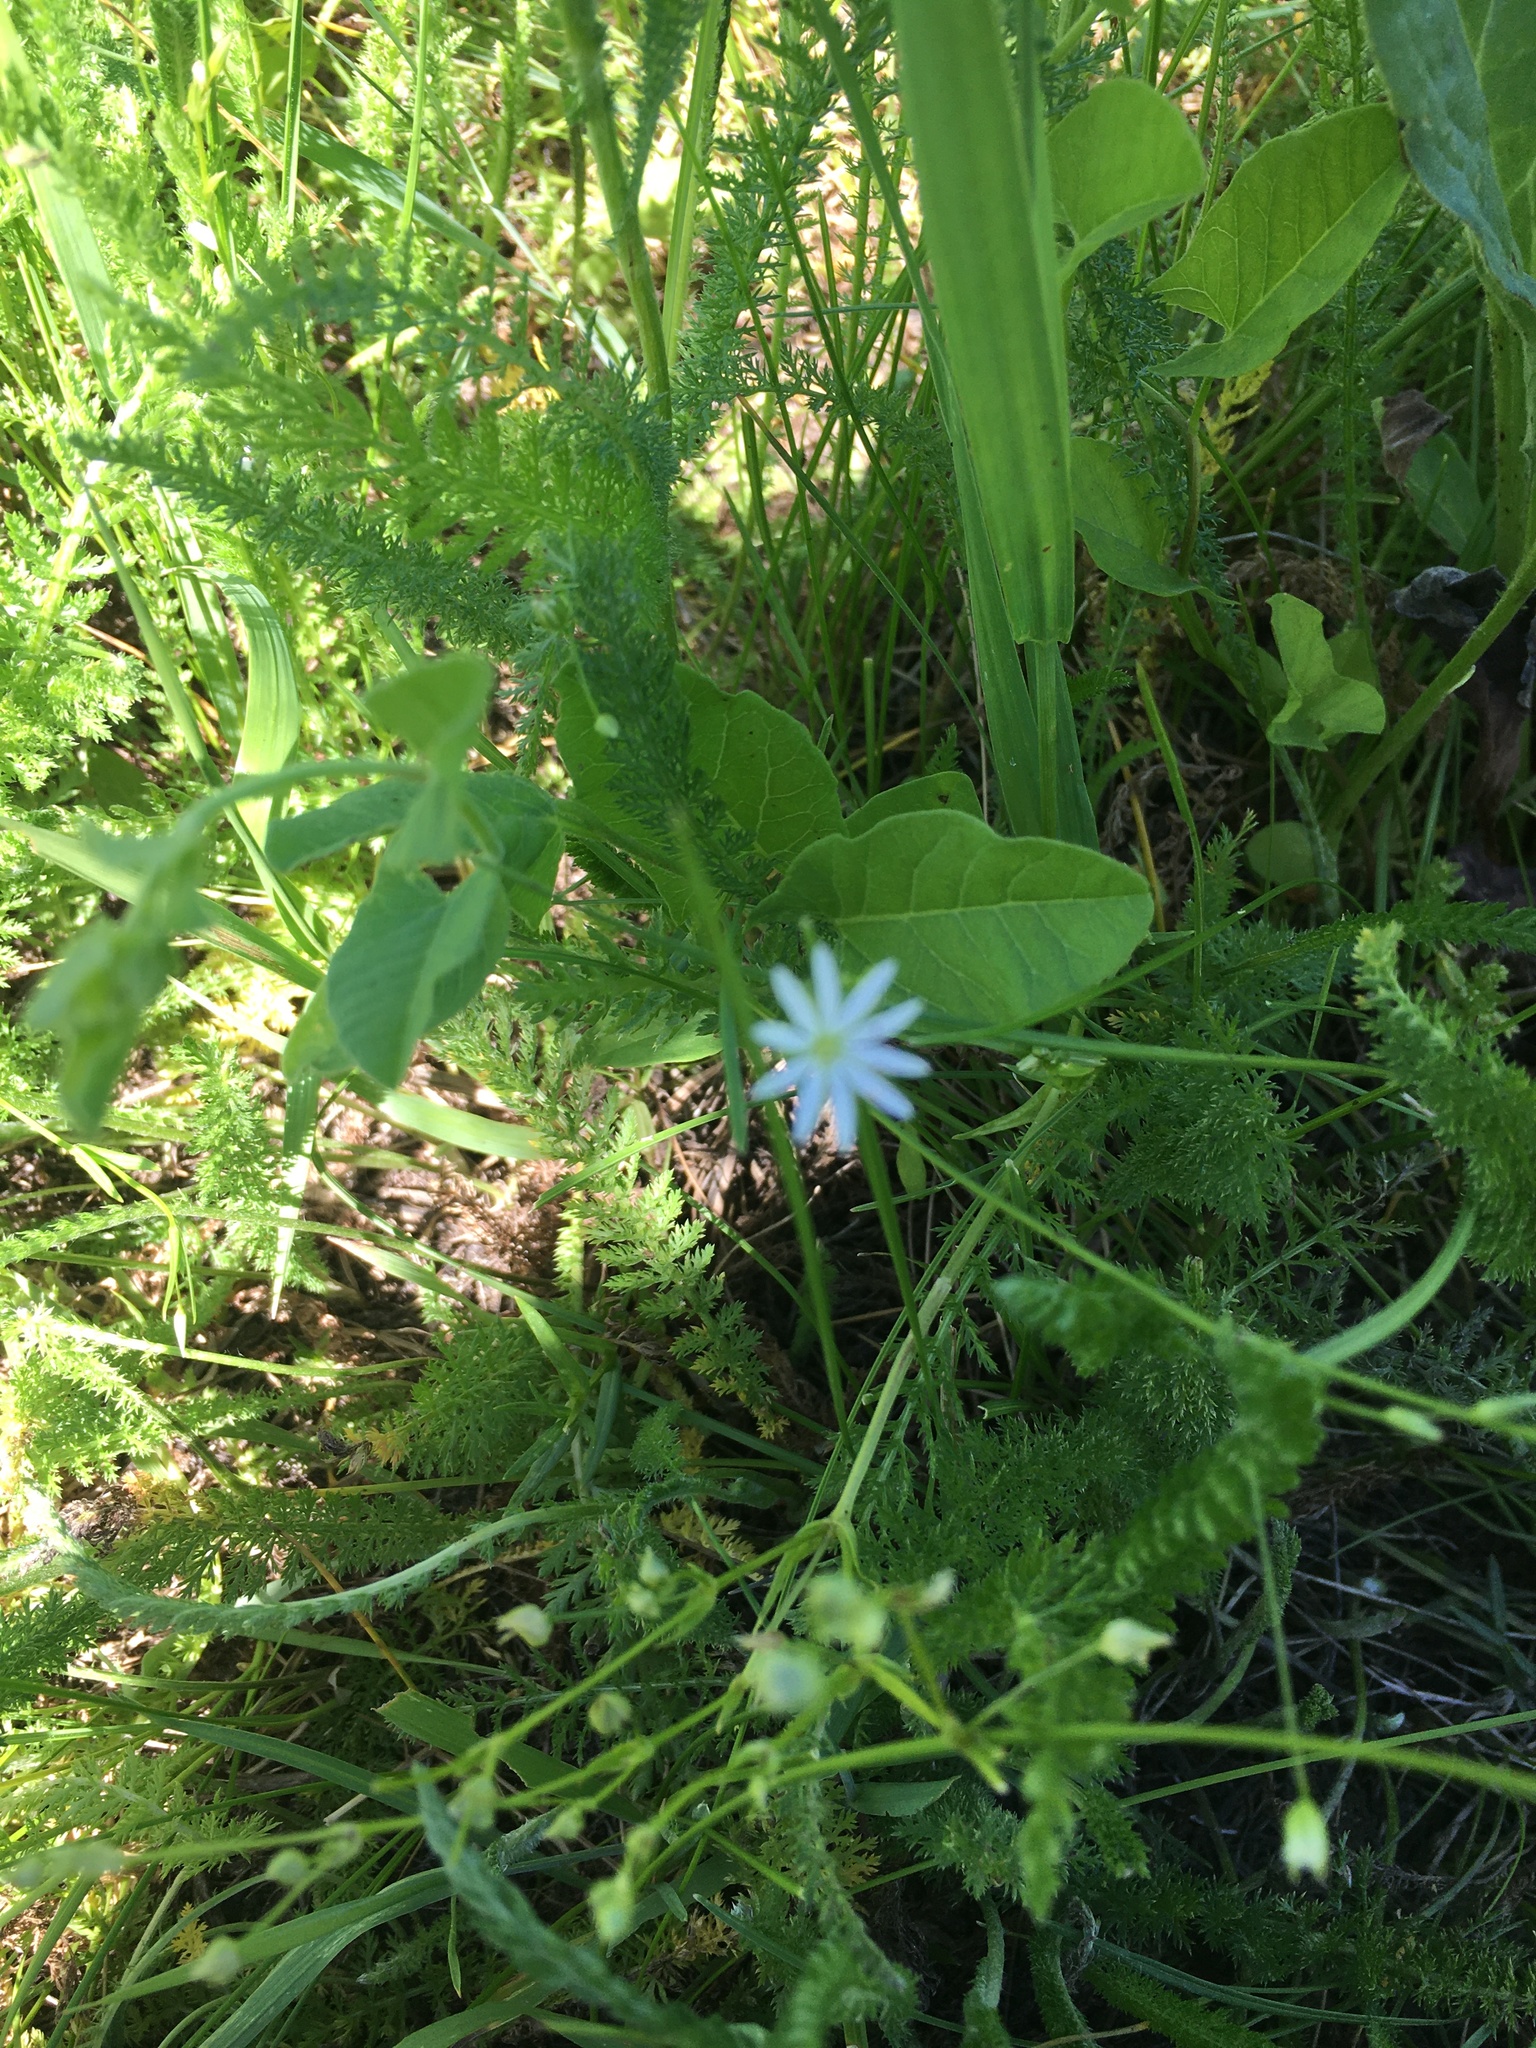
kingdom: Plantae
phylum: Tracheophyta
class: Magnoliopsida
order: Caryophyllales
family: Caryophyllaceae
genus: Stellaria
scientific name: Stellaria graminea
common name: Grass-like starwort
